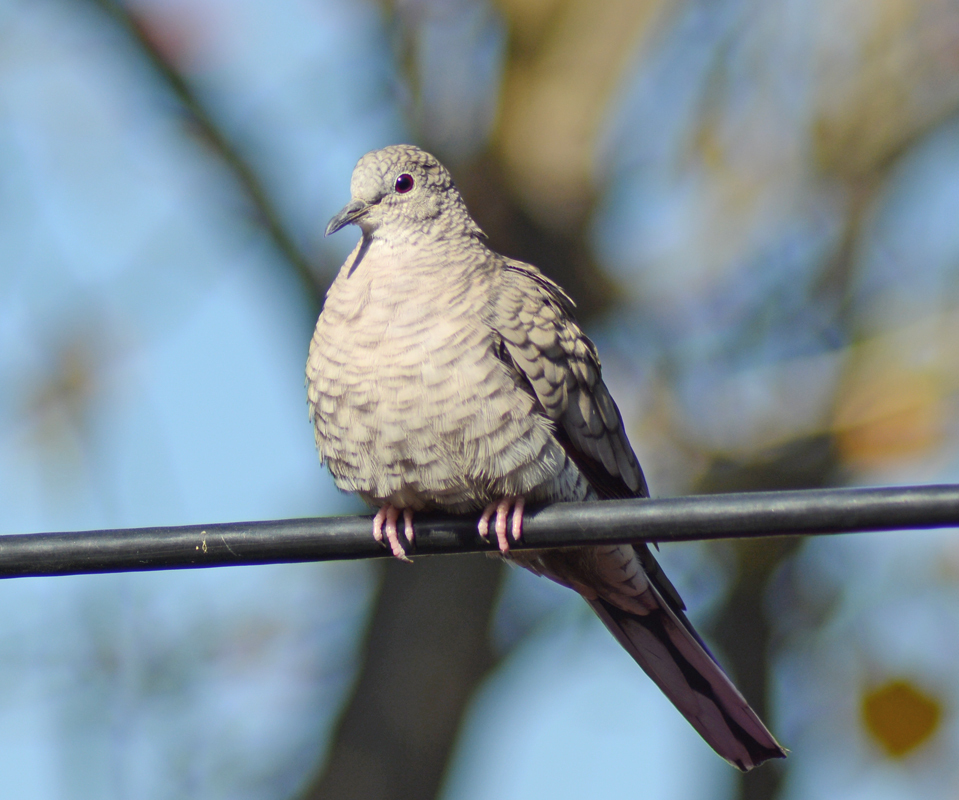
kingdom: Animalia
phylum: Chordata
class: Aves
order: Columbiformes
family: Columbidae
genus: Columbina
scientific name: Columbina inca
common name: Inca dove
